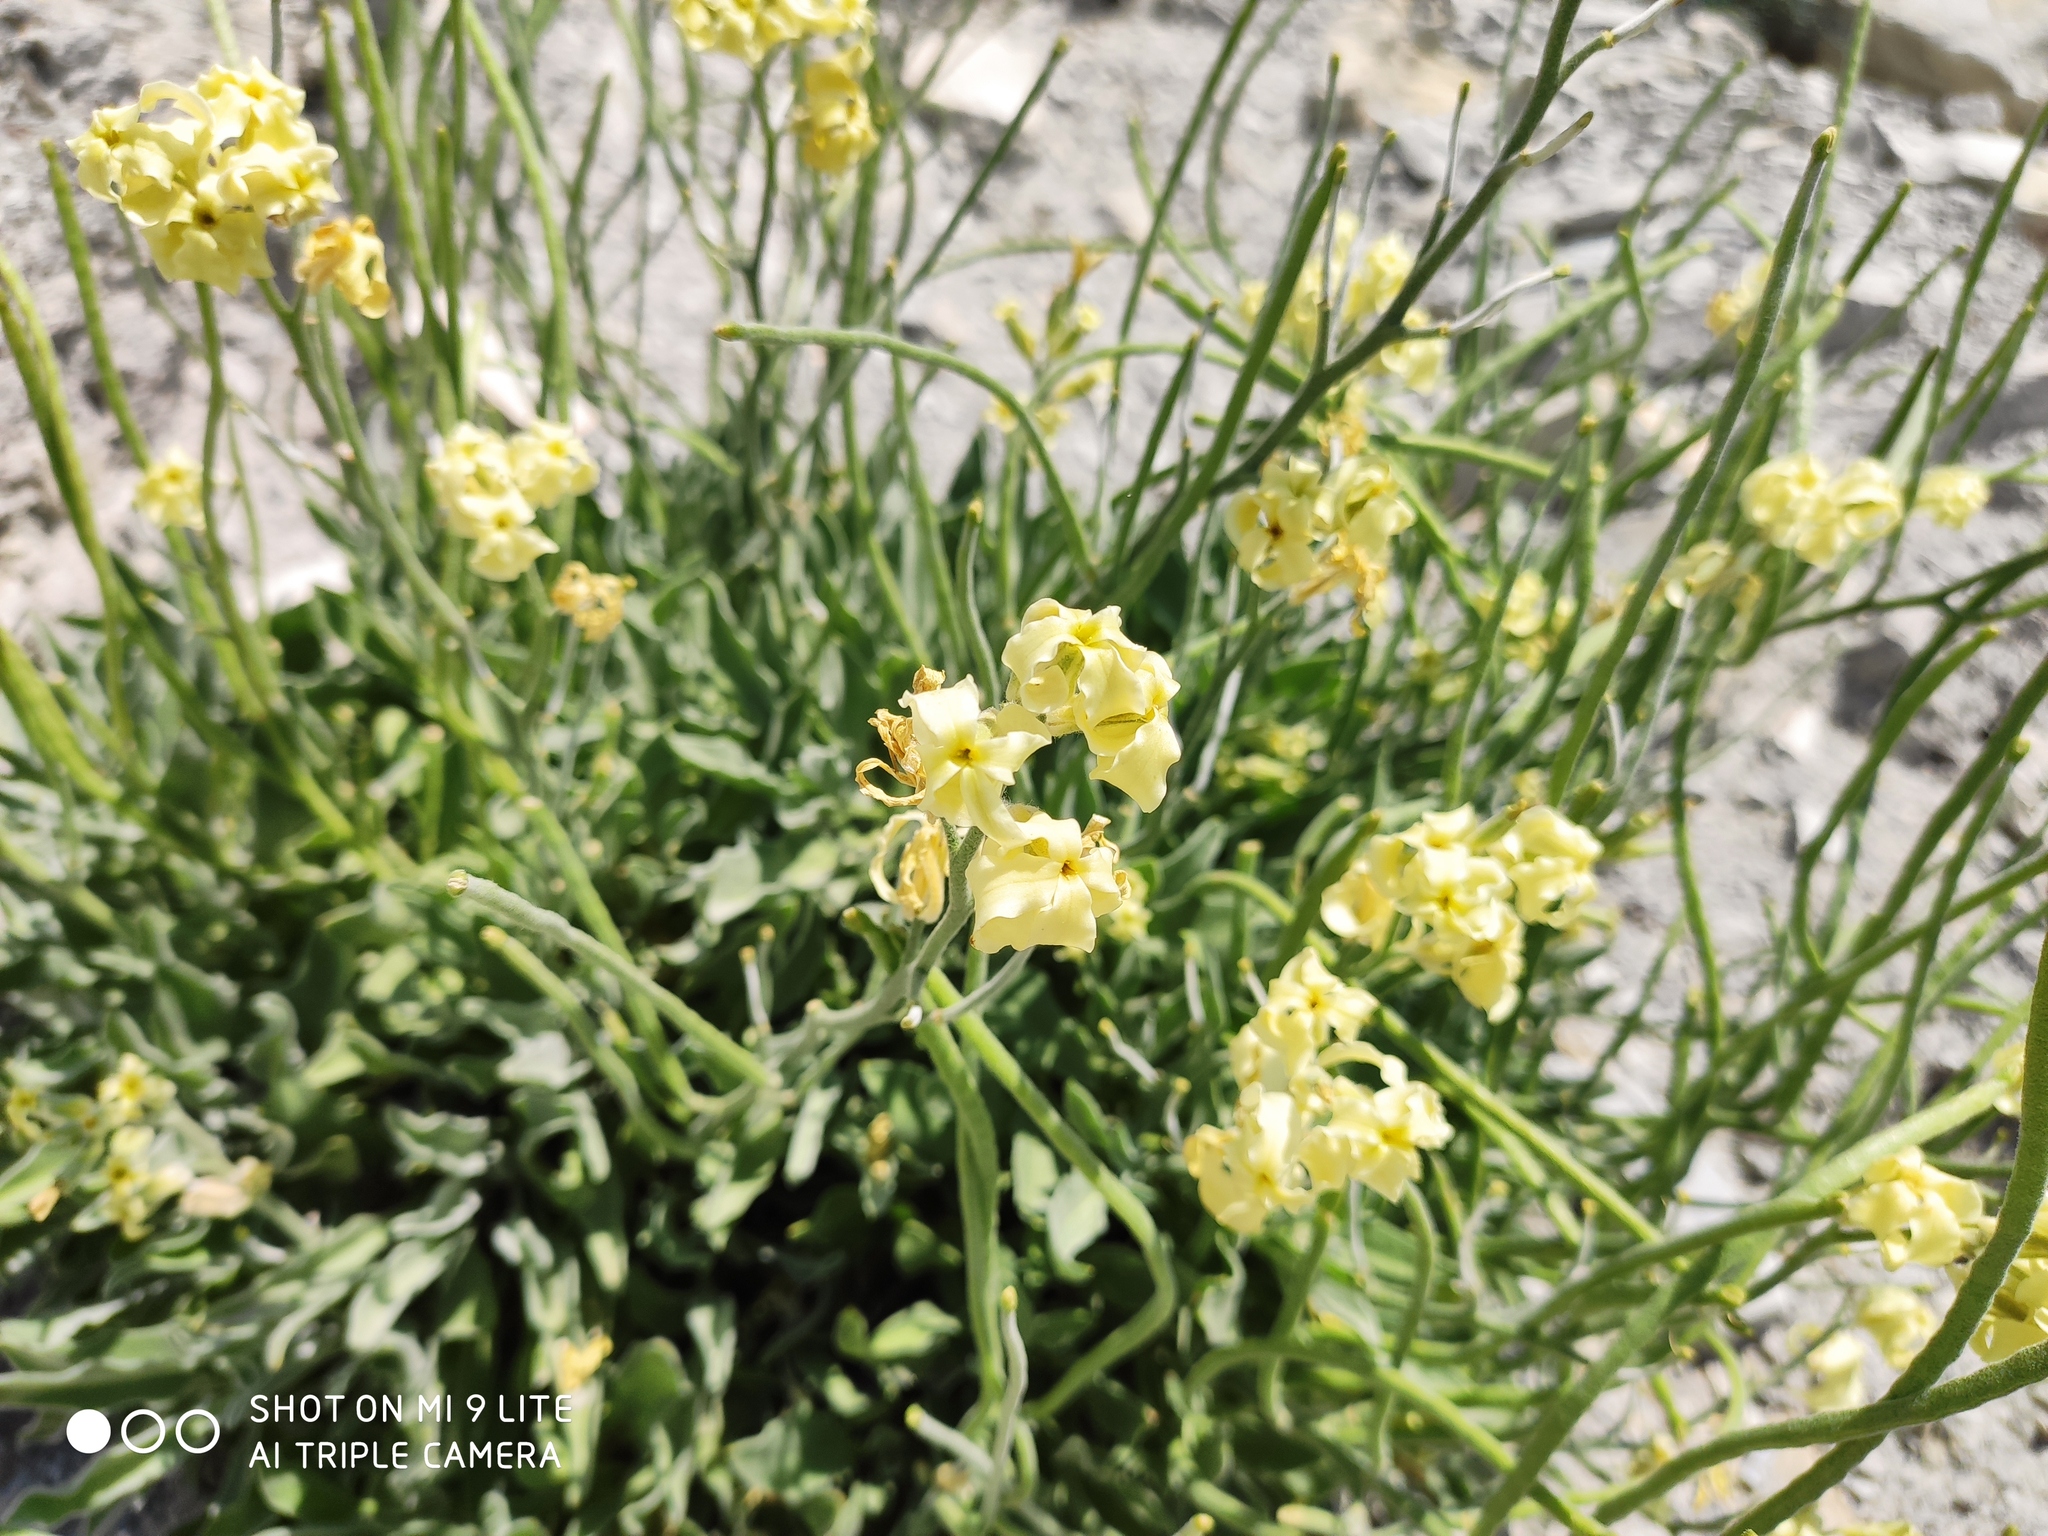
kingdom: Plantae
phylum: Tracheophyta
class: Magnoliopsida
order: Brassicales
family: Brassicaceae
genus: Matthiola
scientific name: Matthiola odoratissima
